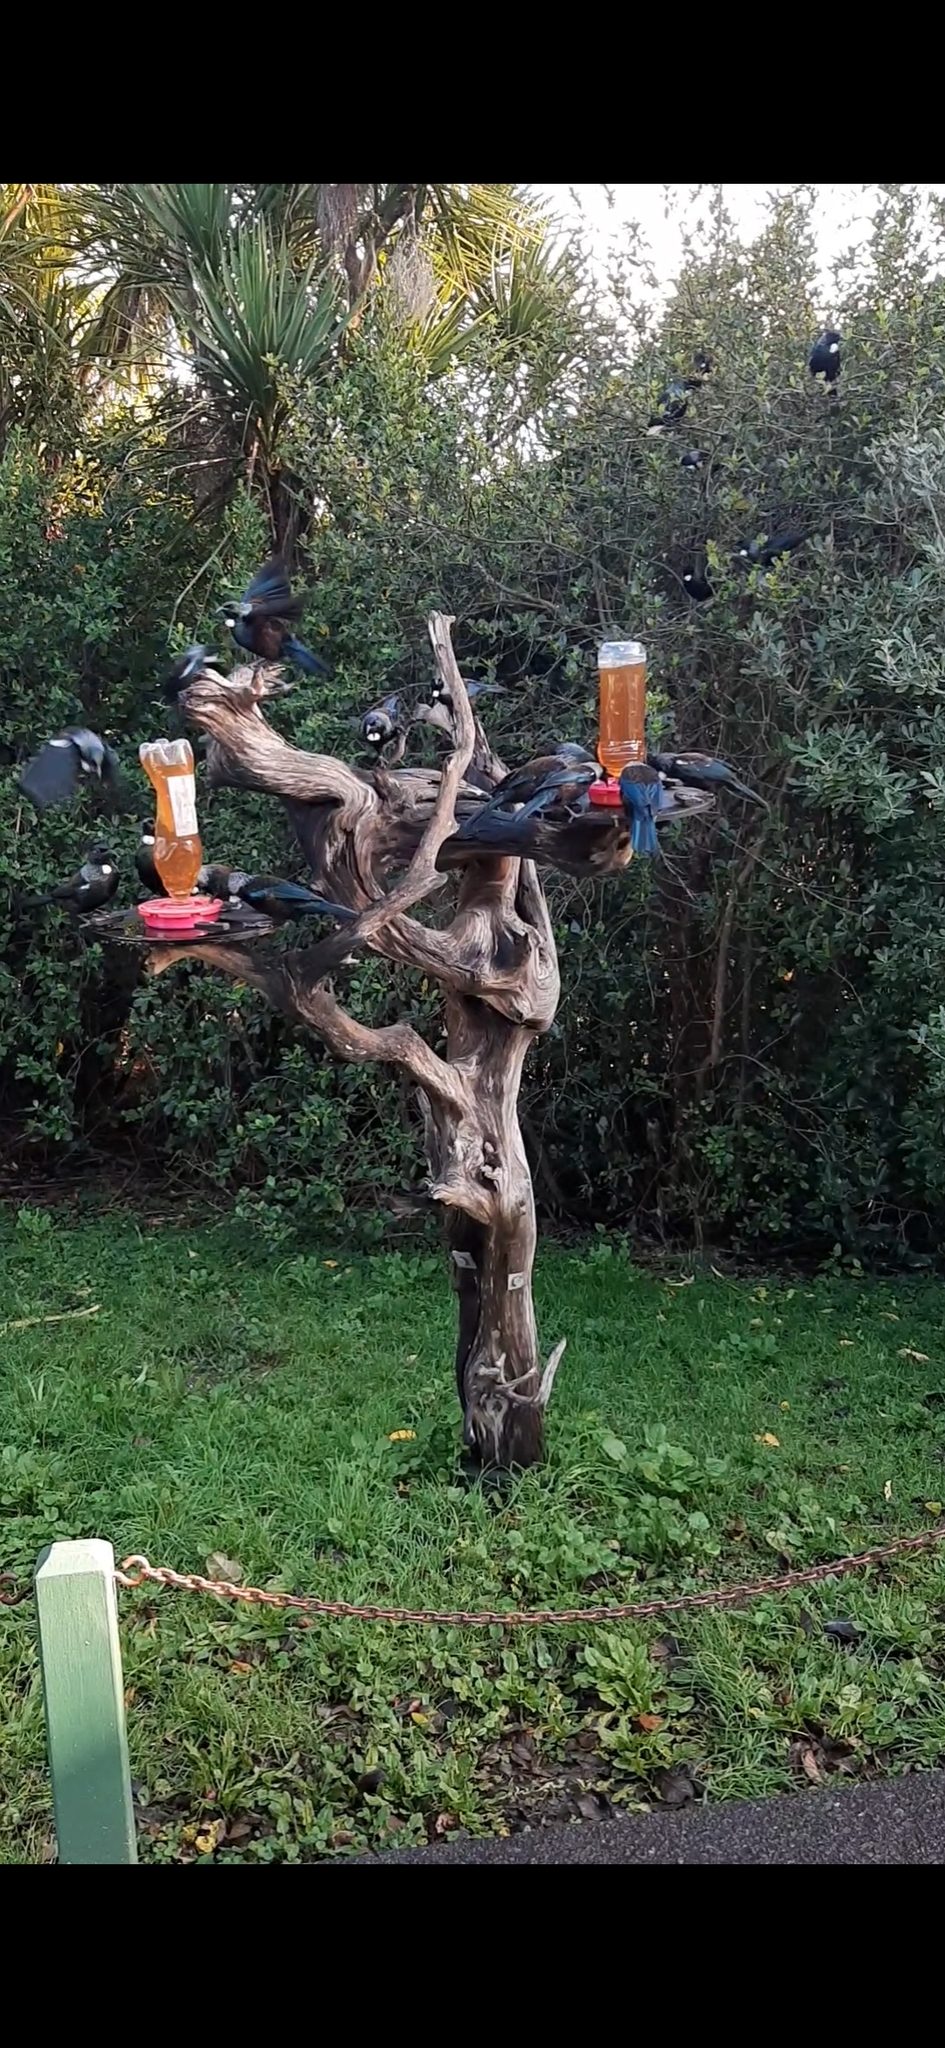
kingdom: Animalia
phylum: Chordata
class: Aves
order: Passeriformes
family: Meliphagidae
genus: Prosthemadera
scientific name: Prosthemadera novaeseelandiae
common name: Tui
